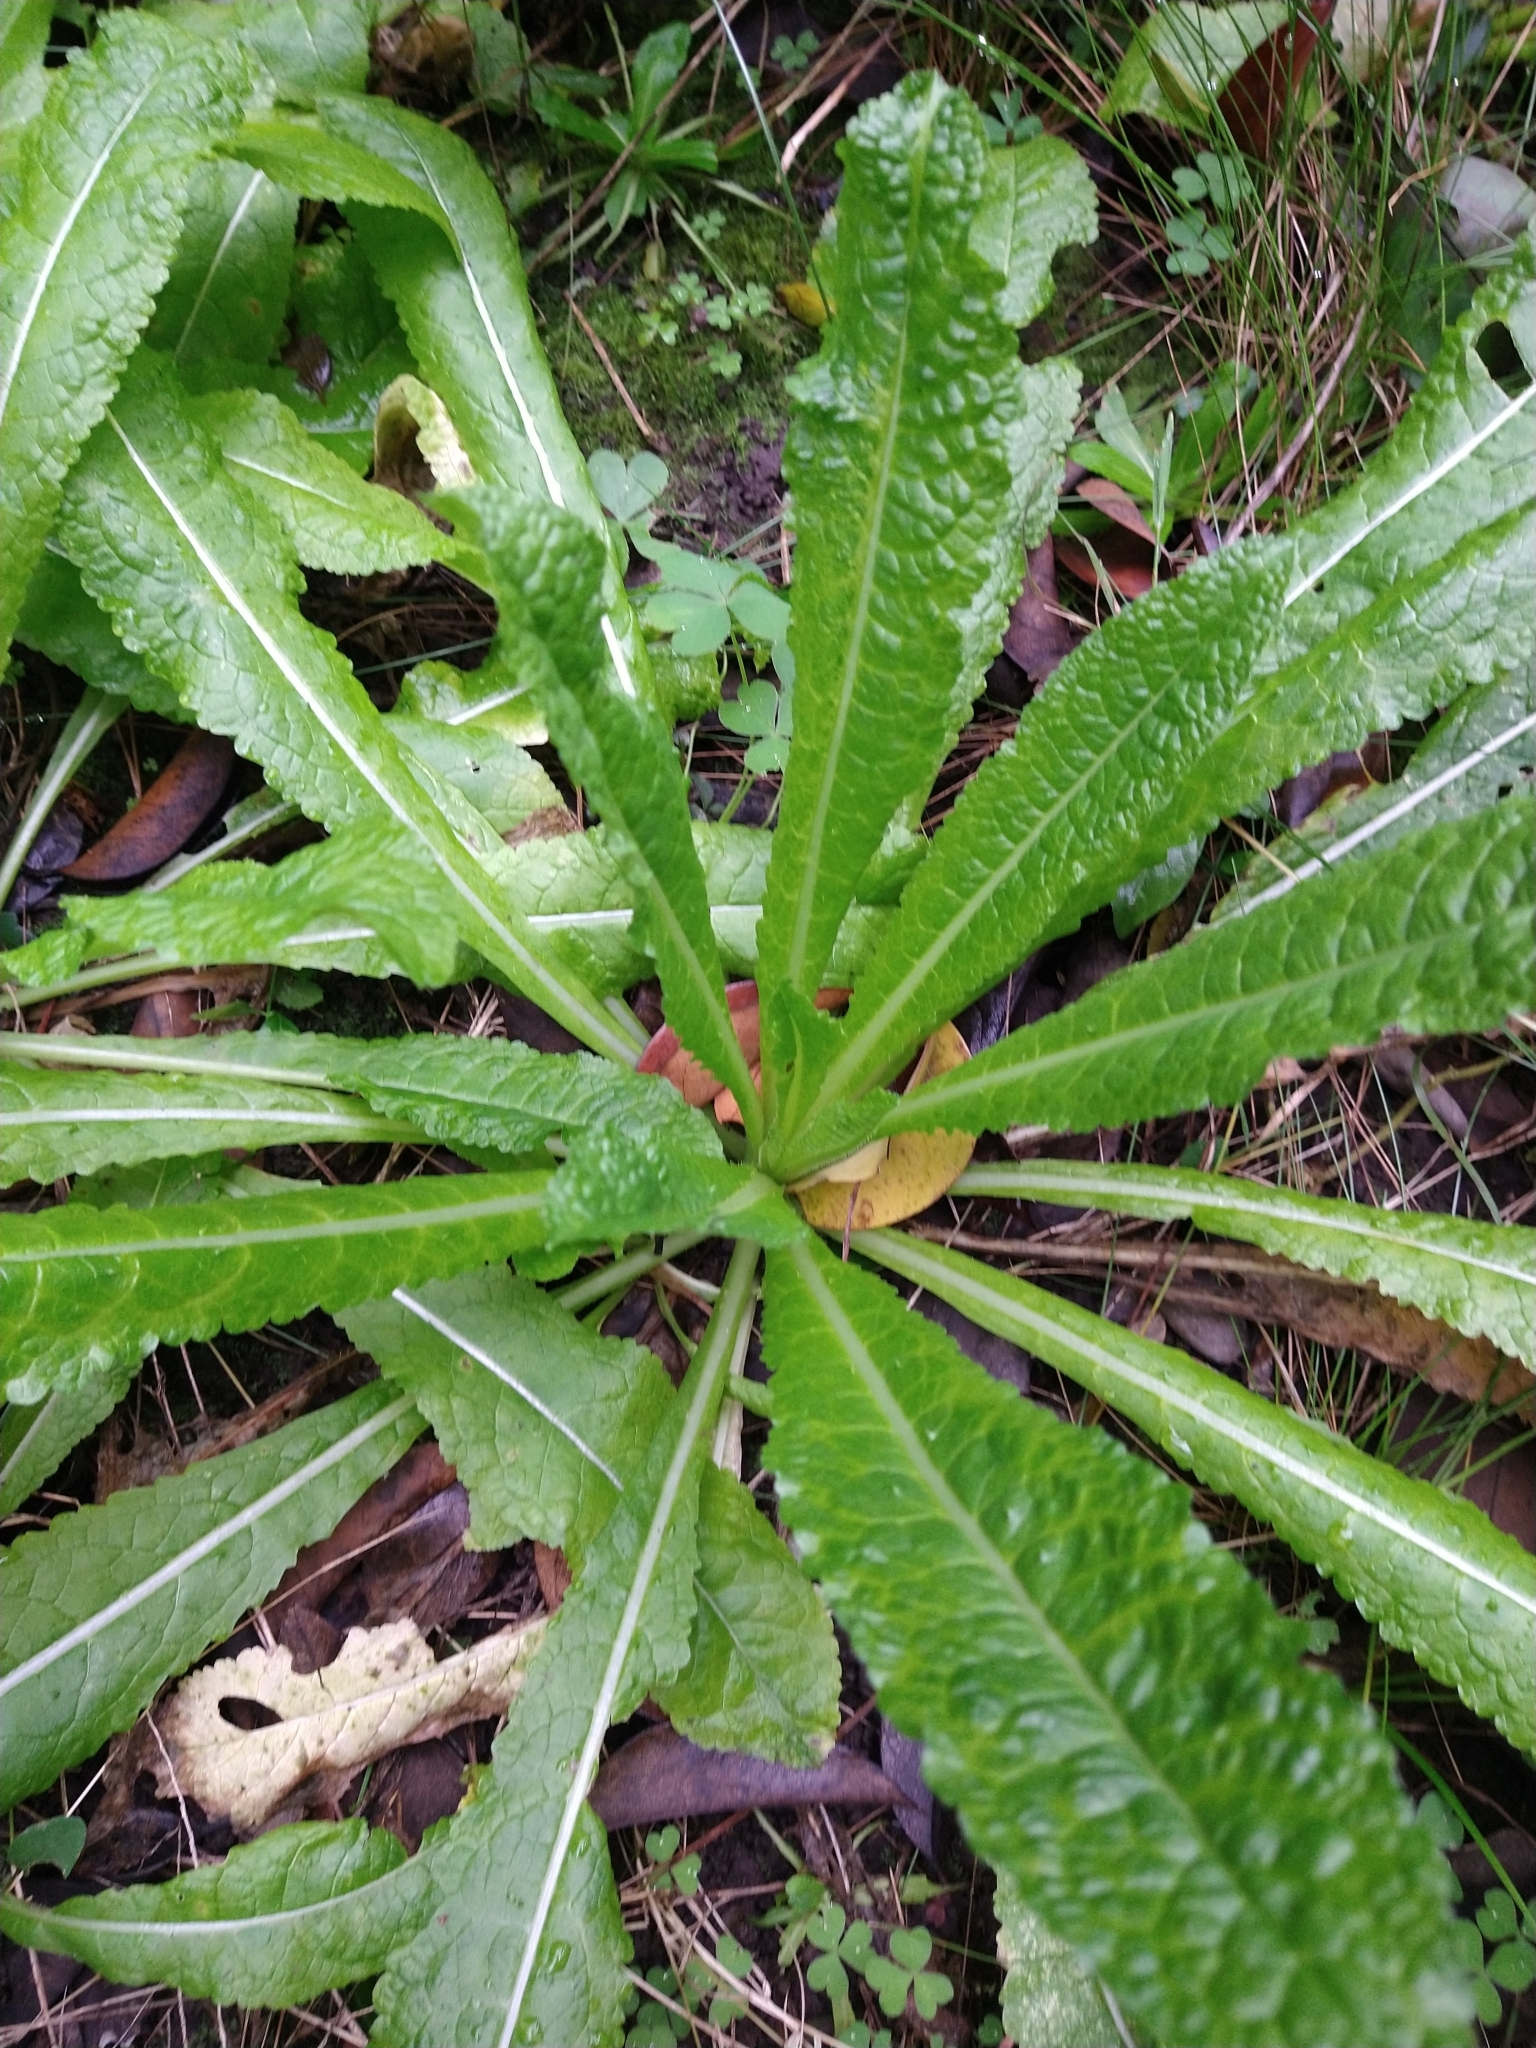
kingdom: Plantae
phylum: Tracheophyta
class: Magnoliopsida
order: Dipsacales
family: Caprifoliaceae
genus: Dipsacus
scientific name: Dipsacus fullonum
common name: Teasel
